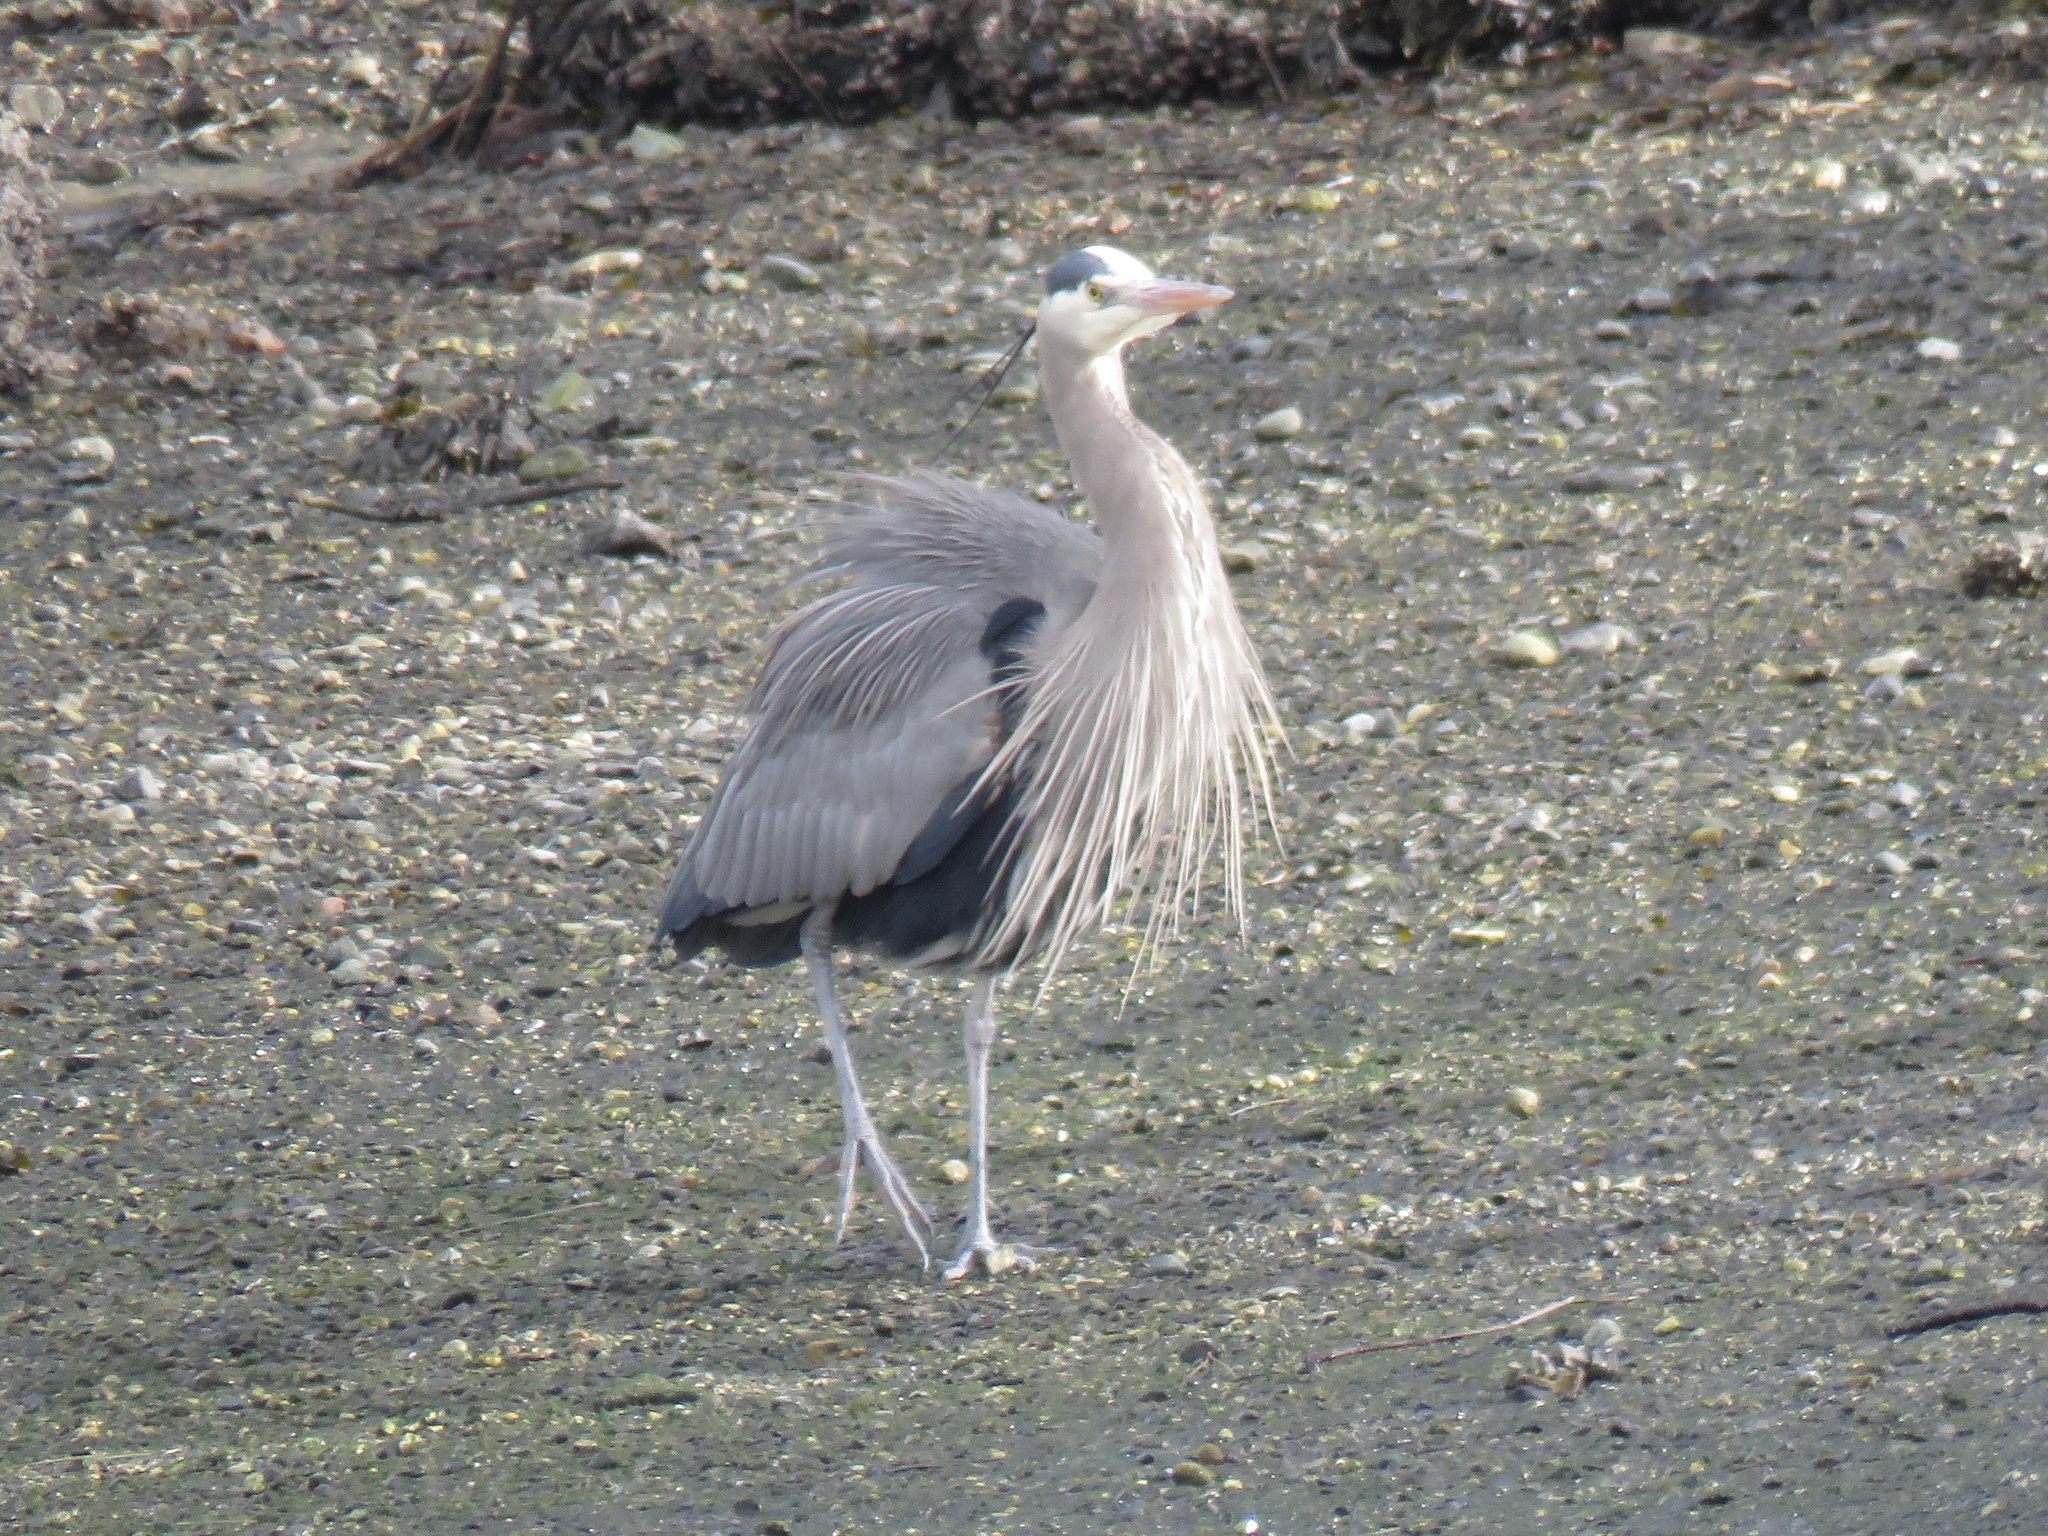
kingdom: Animalia
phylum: Chordata
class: Aves
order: Pelecaniformes
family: Ardeidae
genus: Ardea
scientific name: Ardea herodias
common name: Great blue heron
